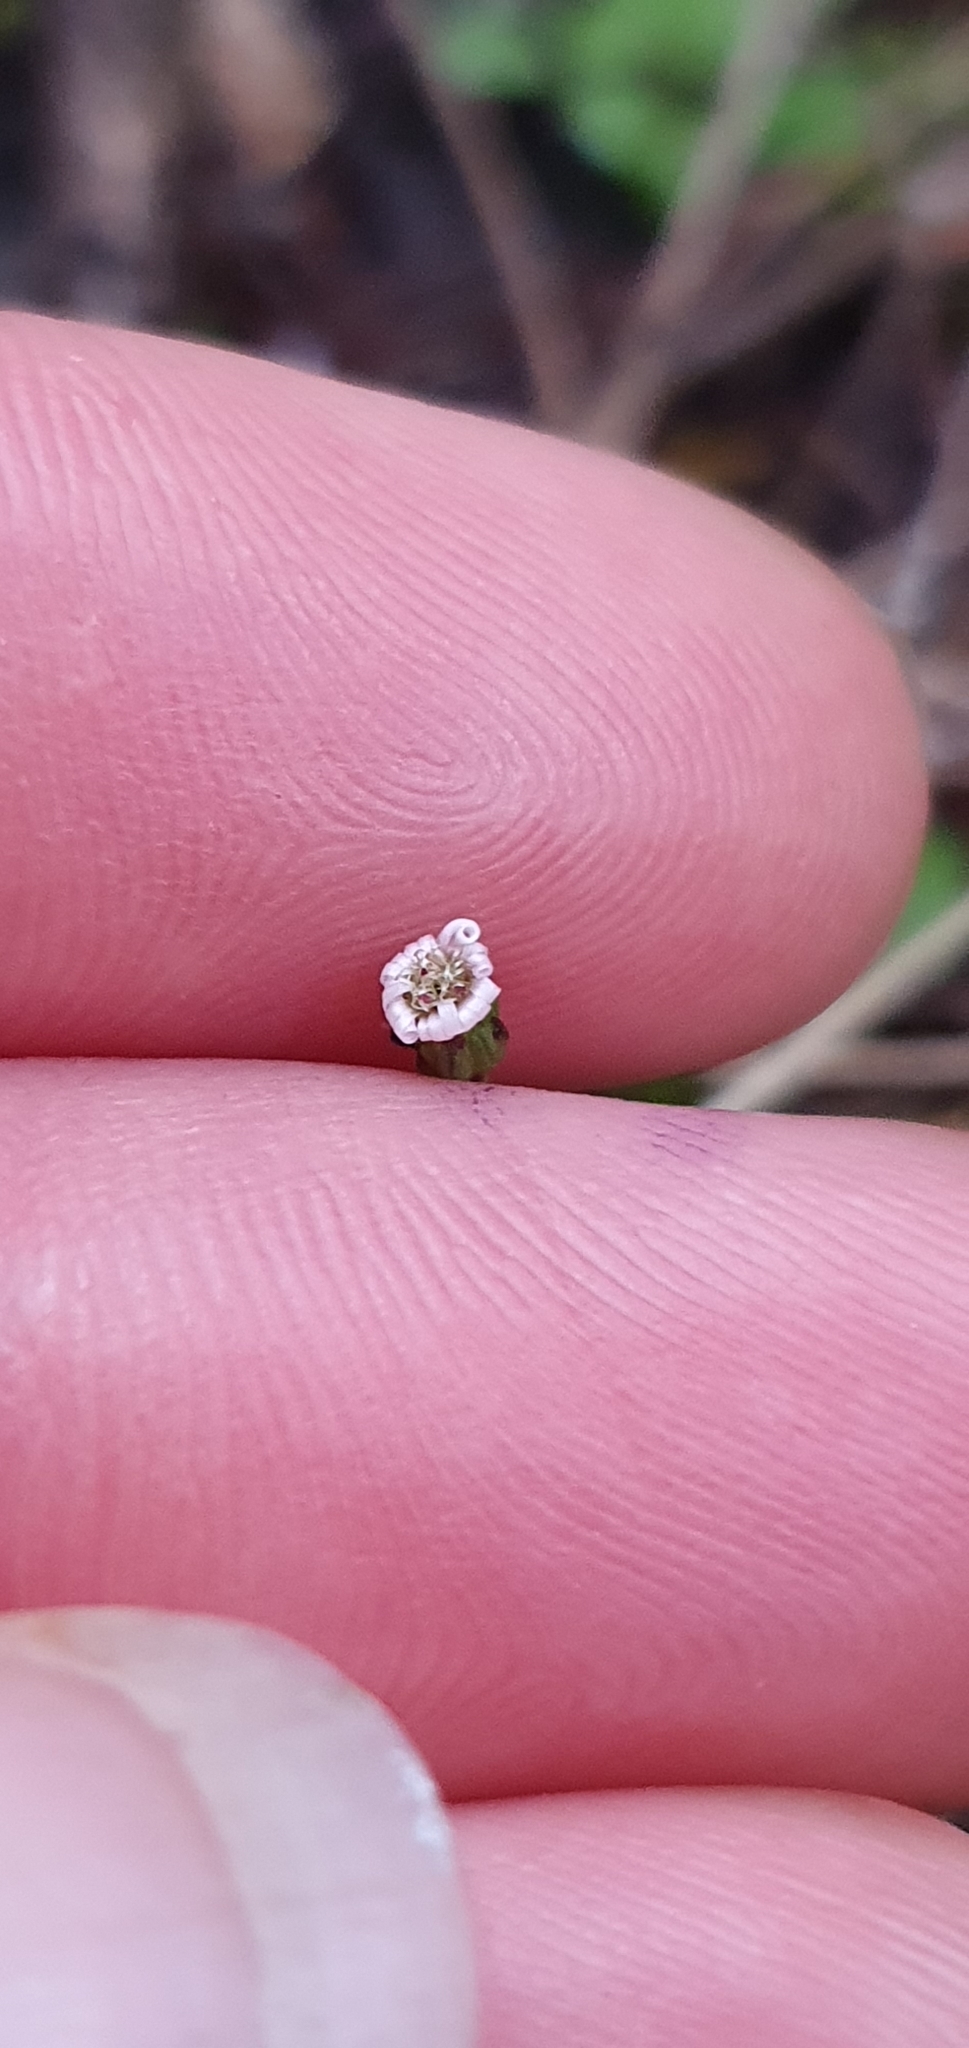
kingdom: Plantae
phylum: Tracheophyta
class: Magnoliopsida
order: Asterales
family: Asteraceae
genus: Lagenophora
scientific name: Lagenophora sublyrata ter
